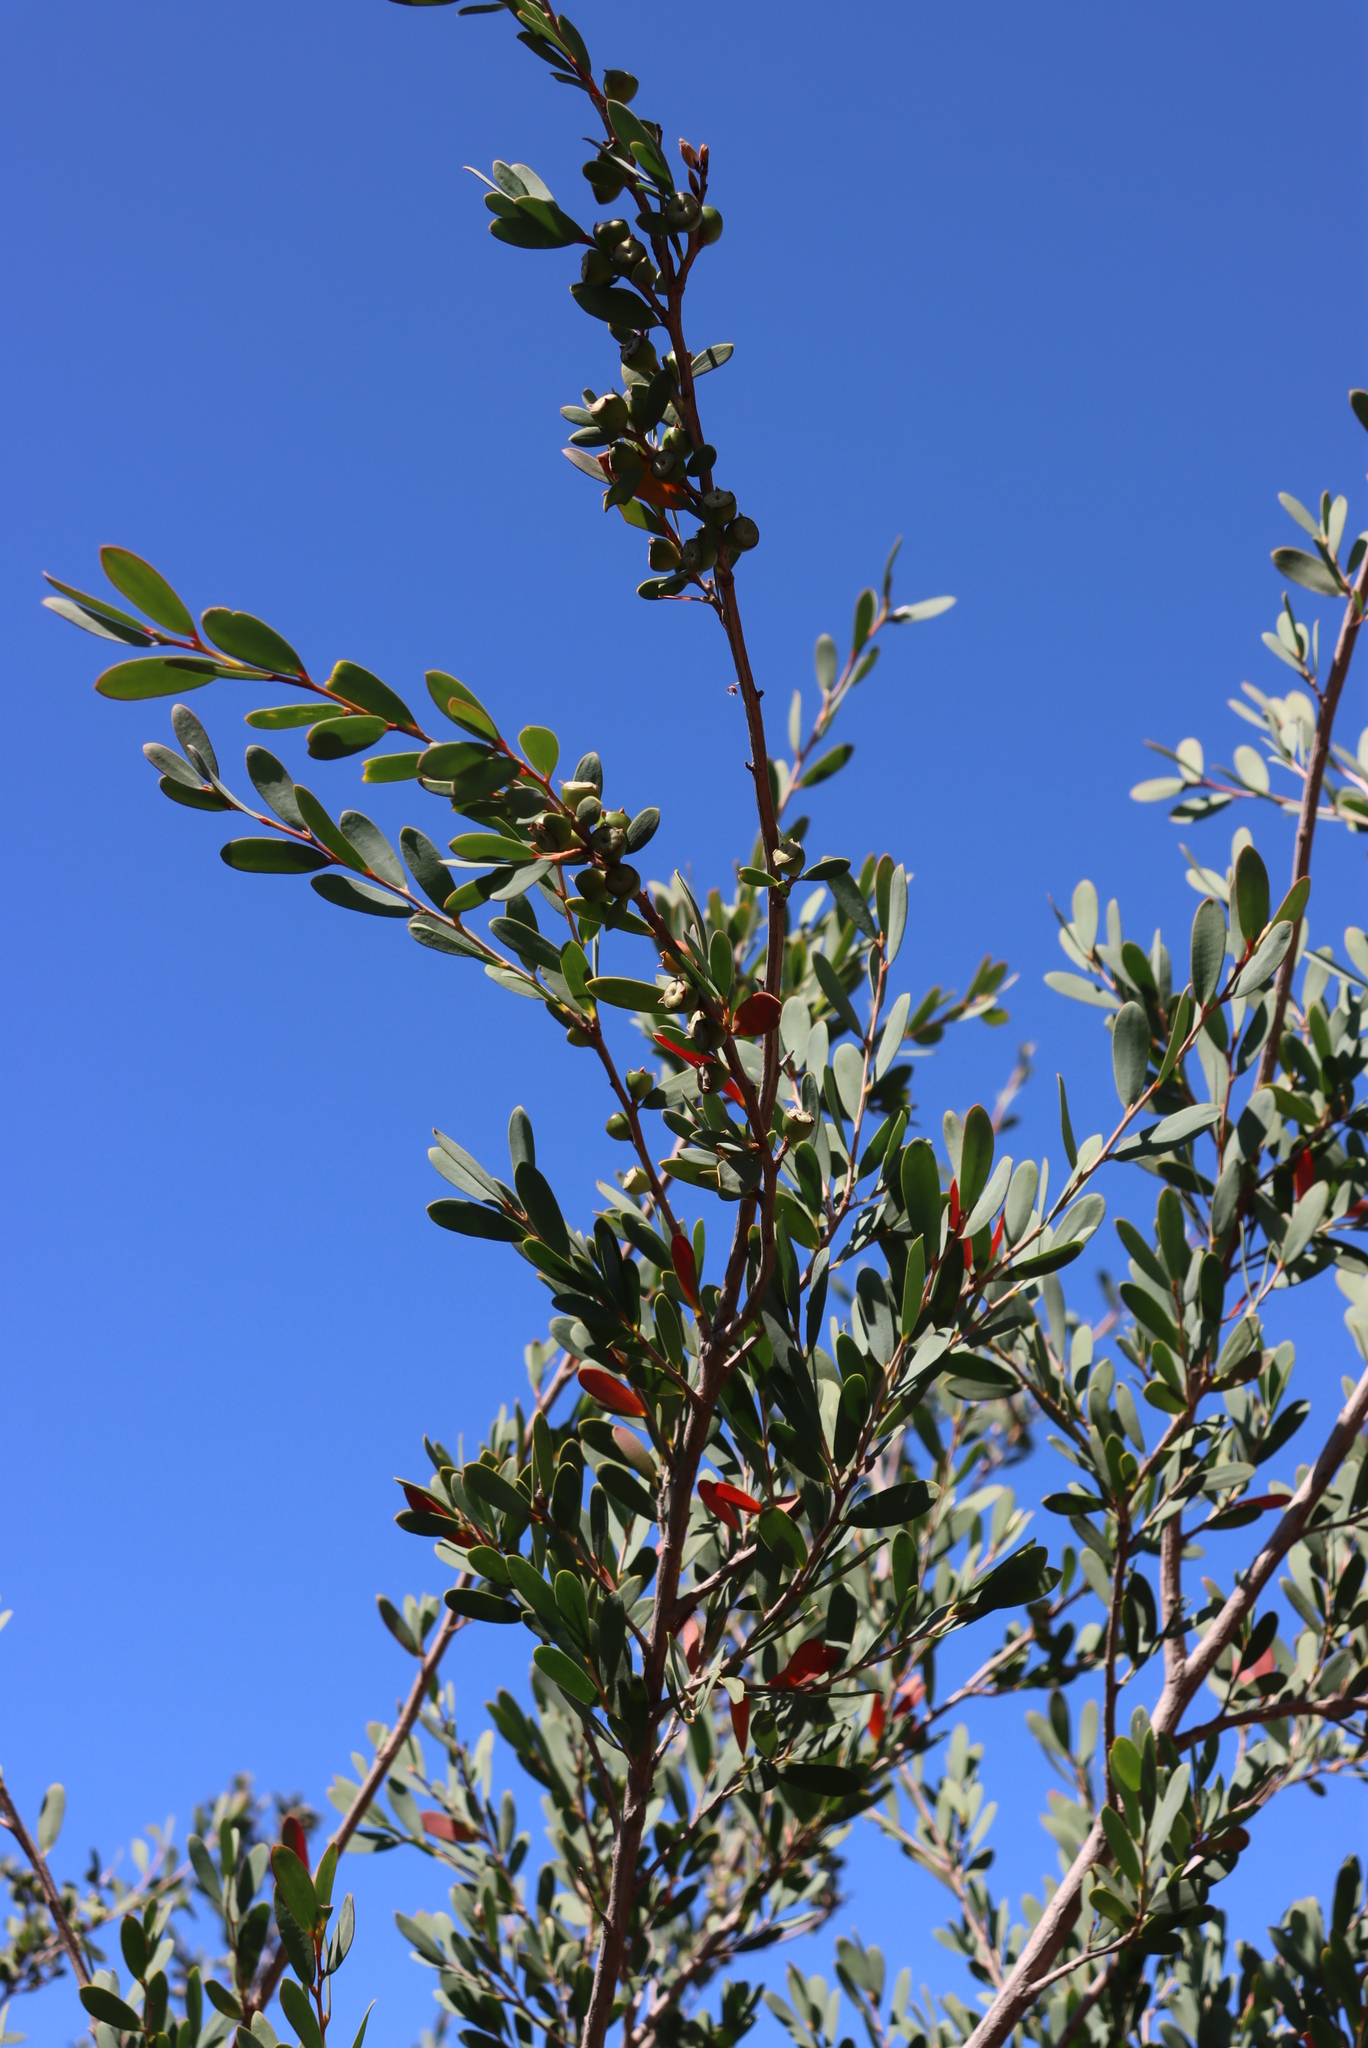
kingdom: Plantae
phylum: Tracheophyta
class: Magnoliopsida
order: Myrtales
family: Myrtaceae
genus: Leptospermum
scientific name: Leptospermum laevigatum
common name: Australian teatree
